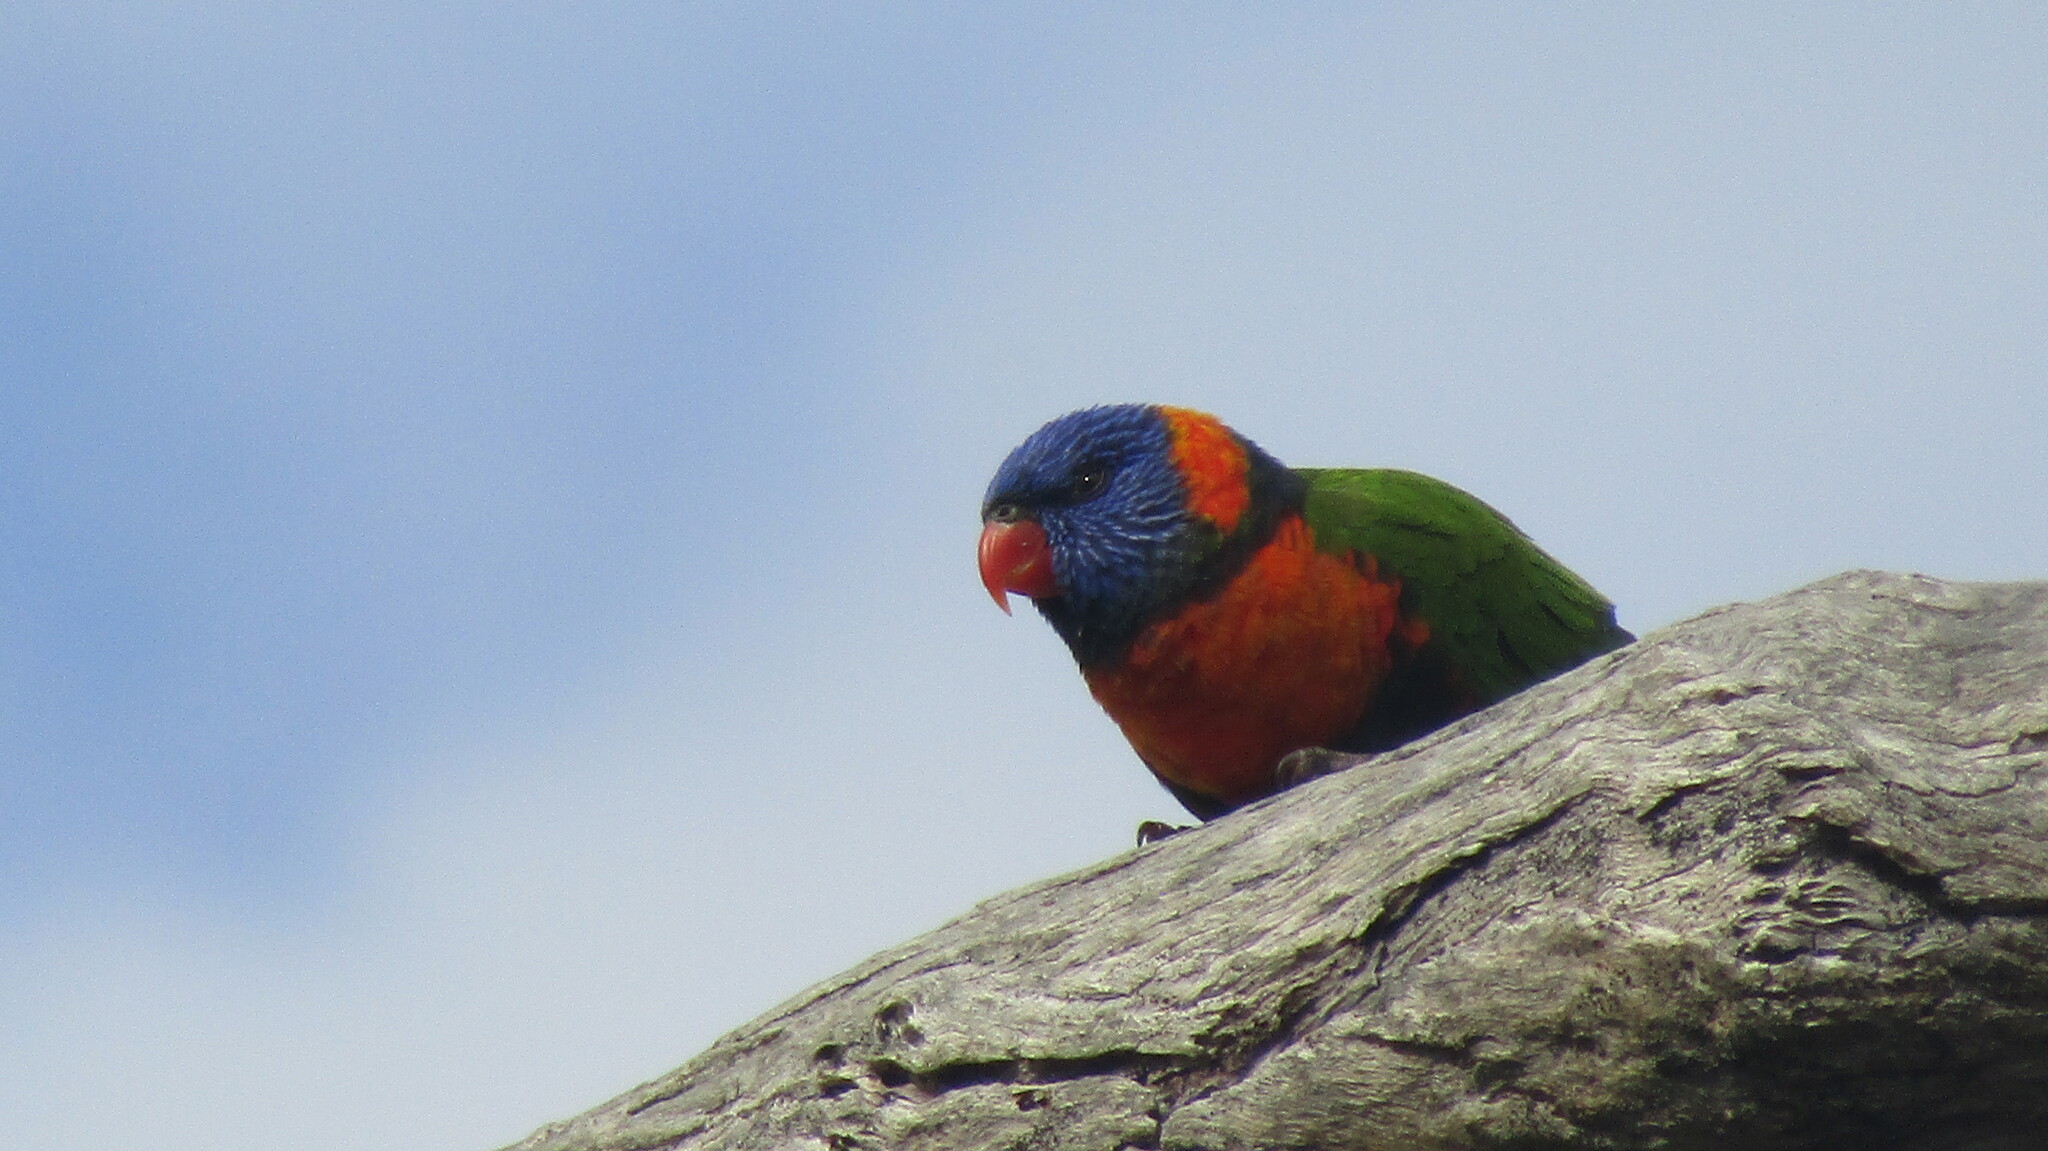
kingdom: Animalia
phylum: Chordata
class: Aves
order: Psittaciformes
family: Psittacidae
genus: Trichoglossus
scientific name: Trichoglossus rubritorquis
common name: Red-collared lorikeet
